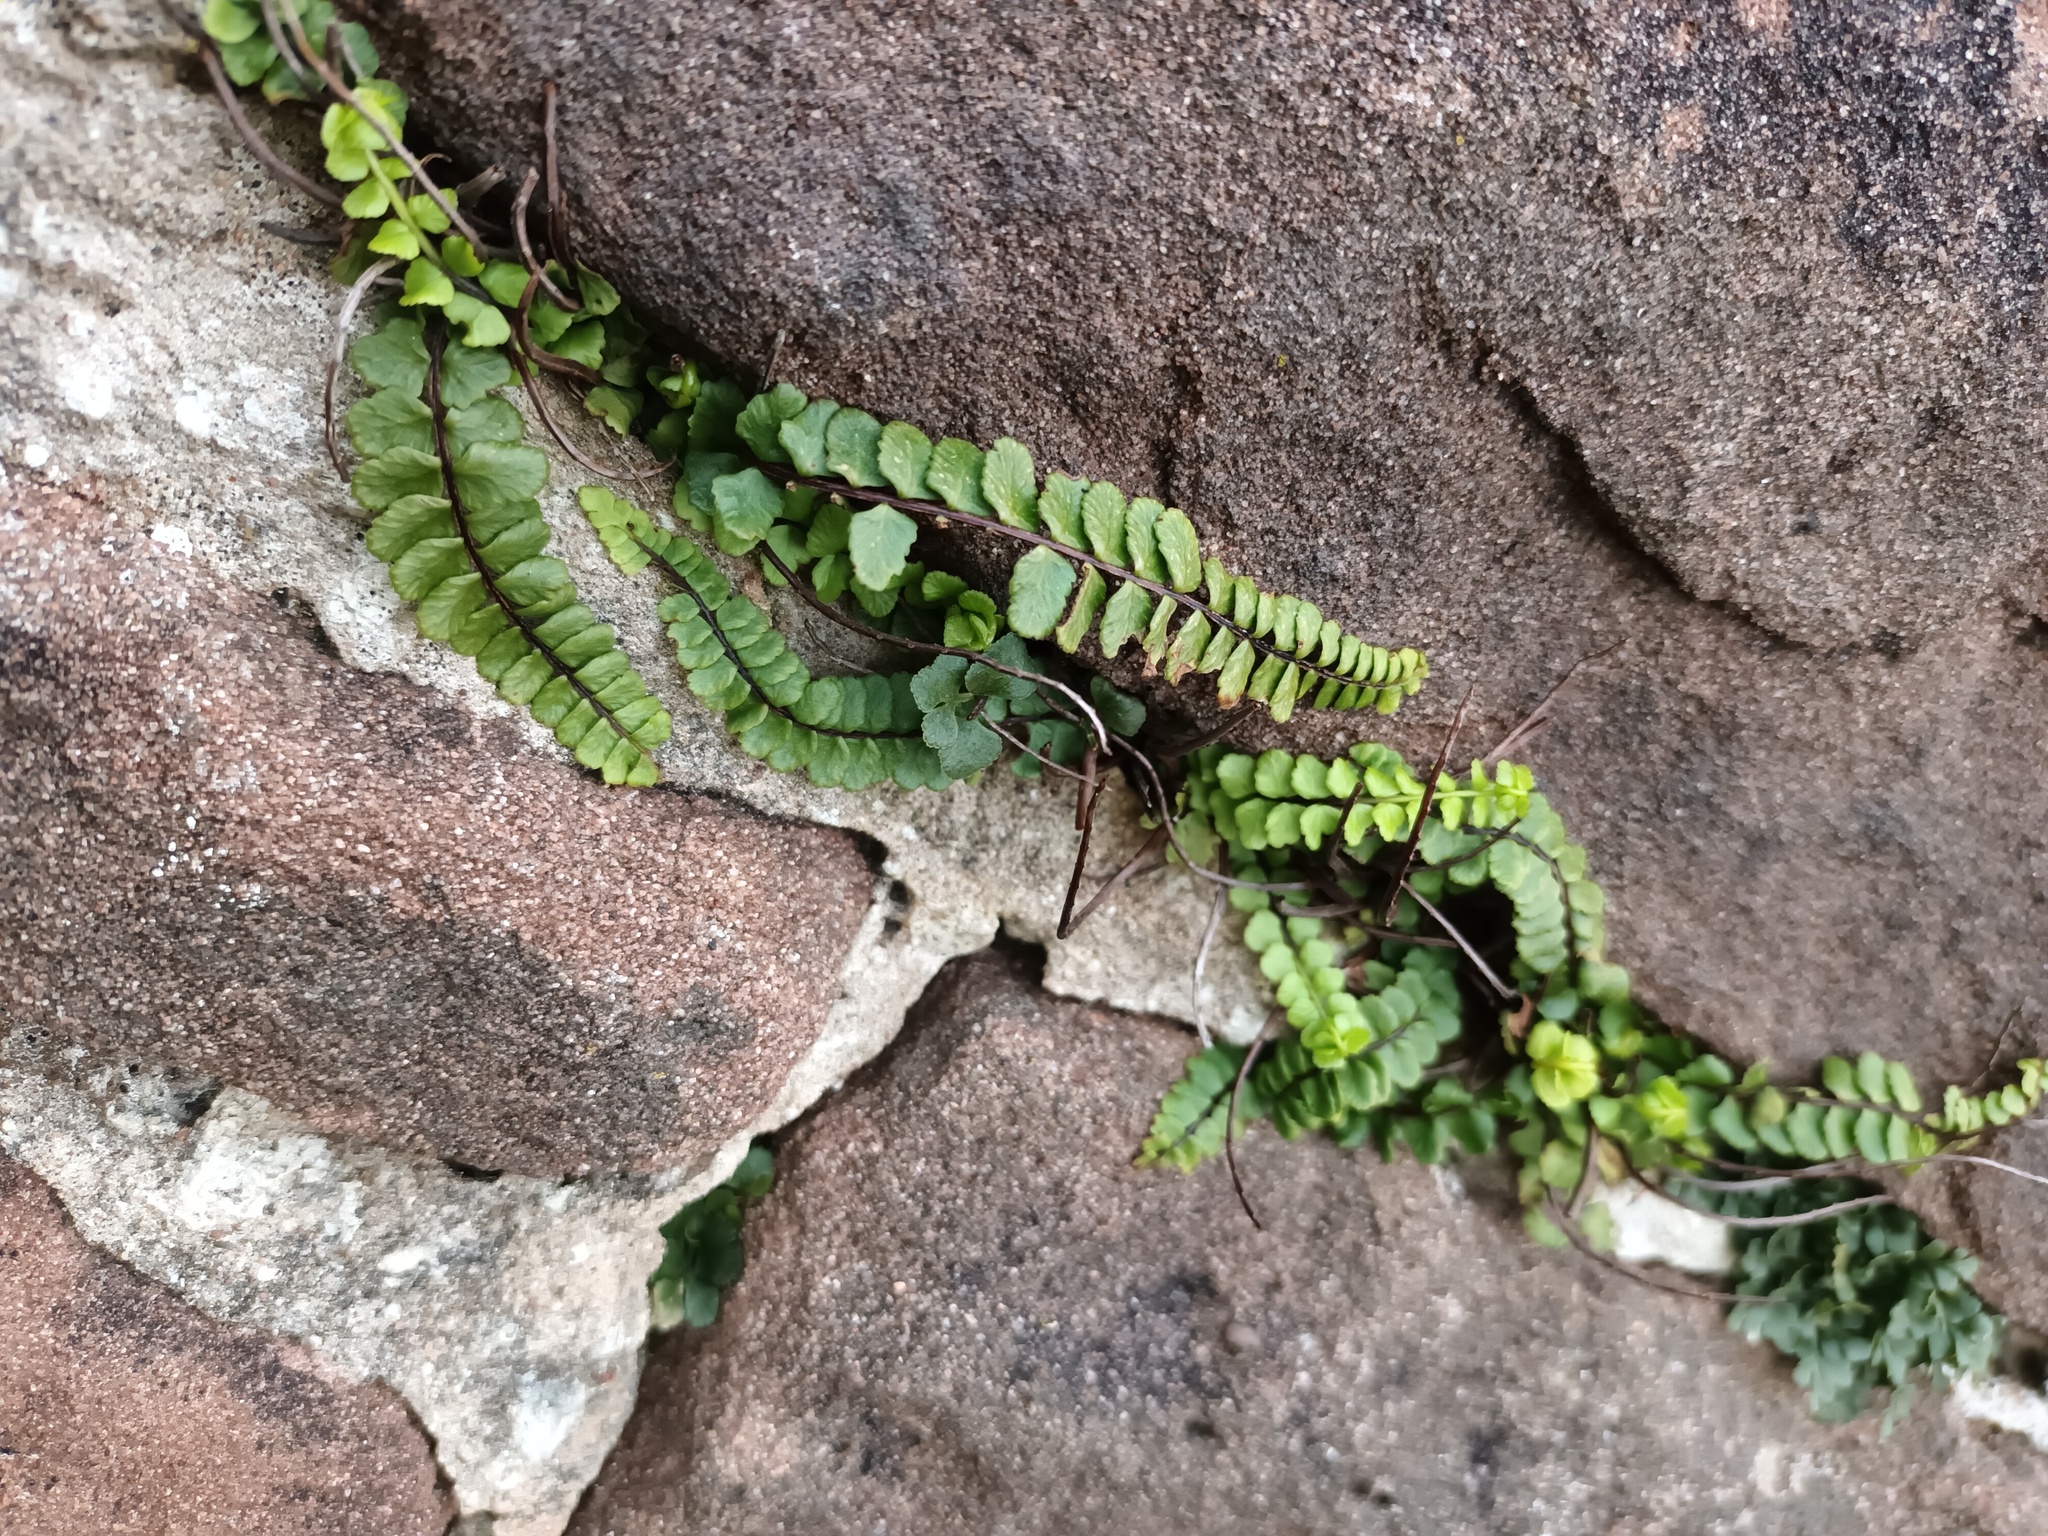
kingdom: Plantae
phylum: Tracheophyta
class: Polypodiopsida
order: Polypodiales
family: Aspleniaceae
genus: Asplenium
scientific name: Asplenium trichomanes
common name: Maidenhair spleenwort
